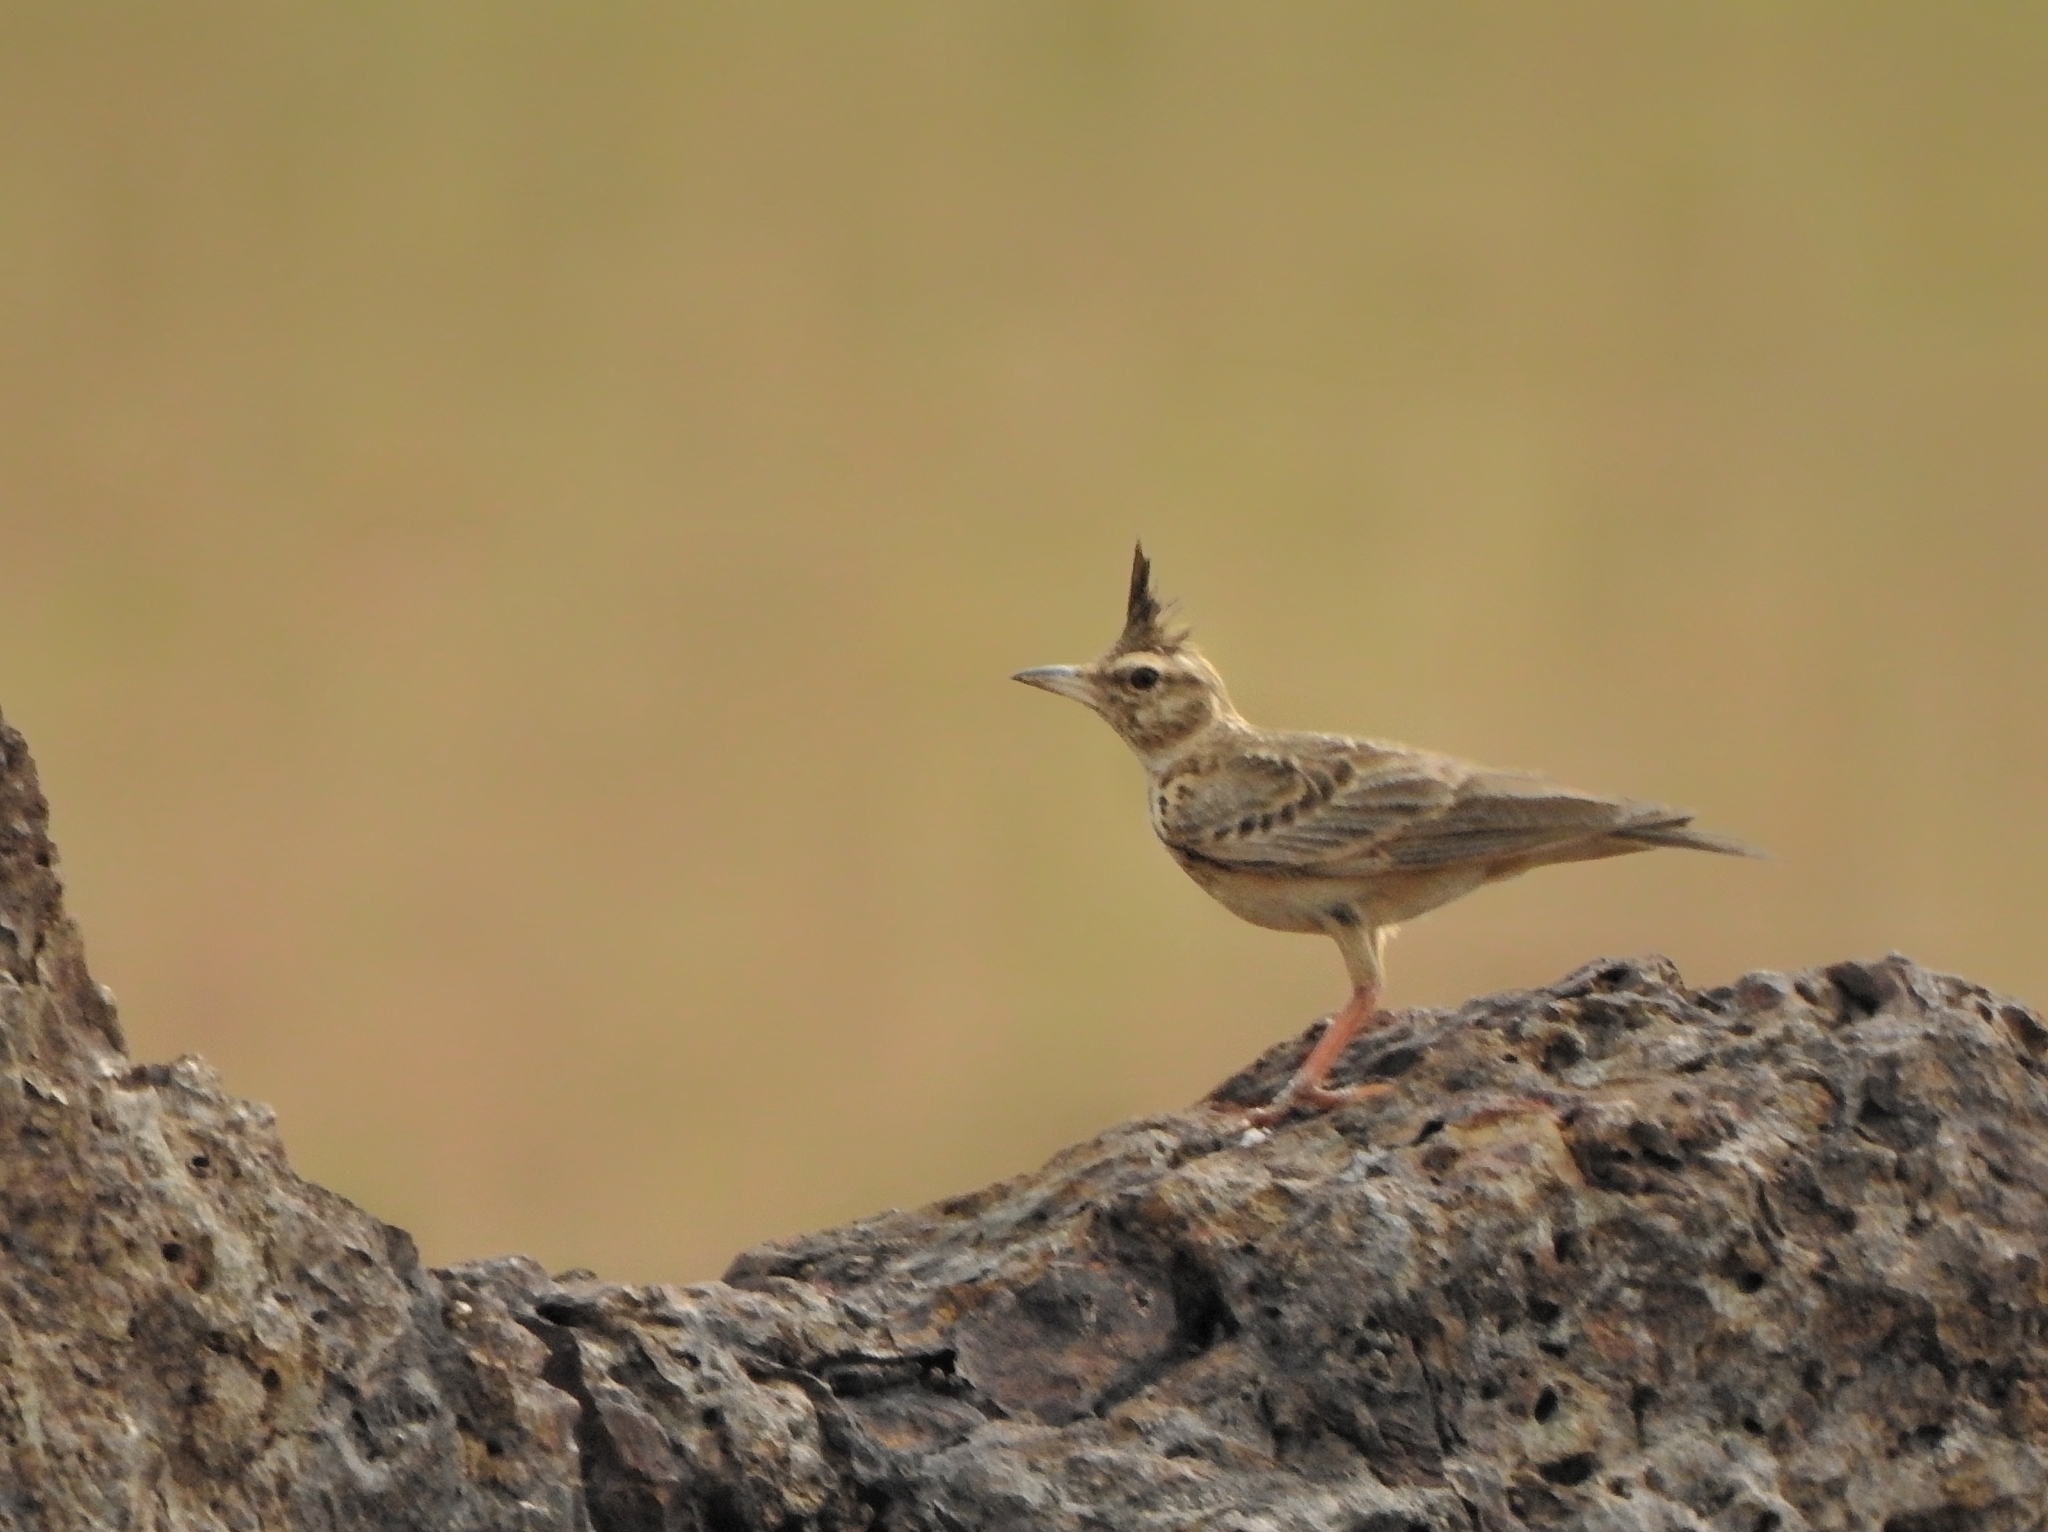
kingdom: Animalia
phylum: Chordata
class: Aves
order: Passeriformes
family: Alaudidae
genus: Galerida
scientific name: Galerida malabarica
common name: Malabar lark
